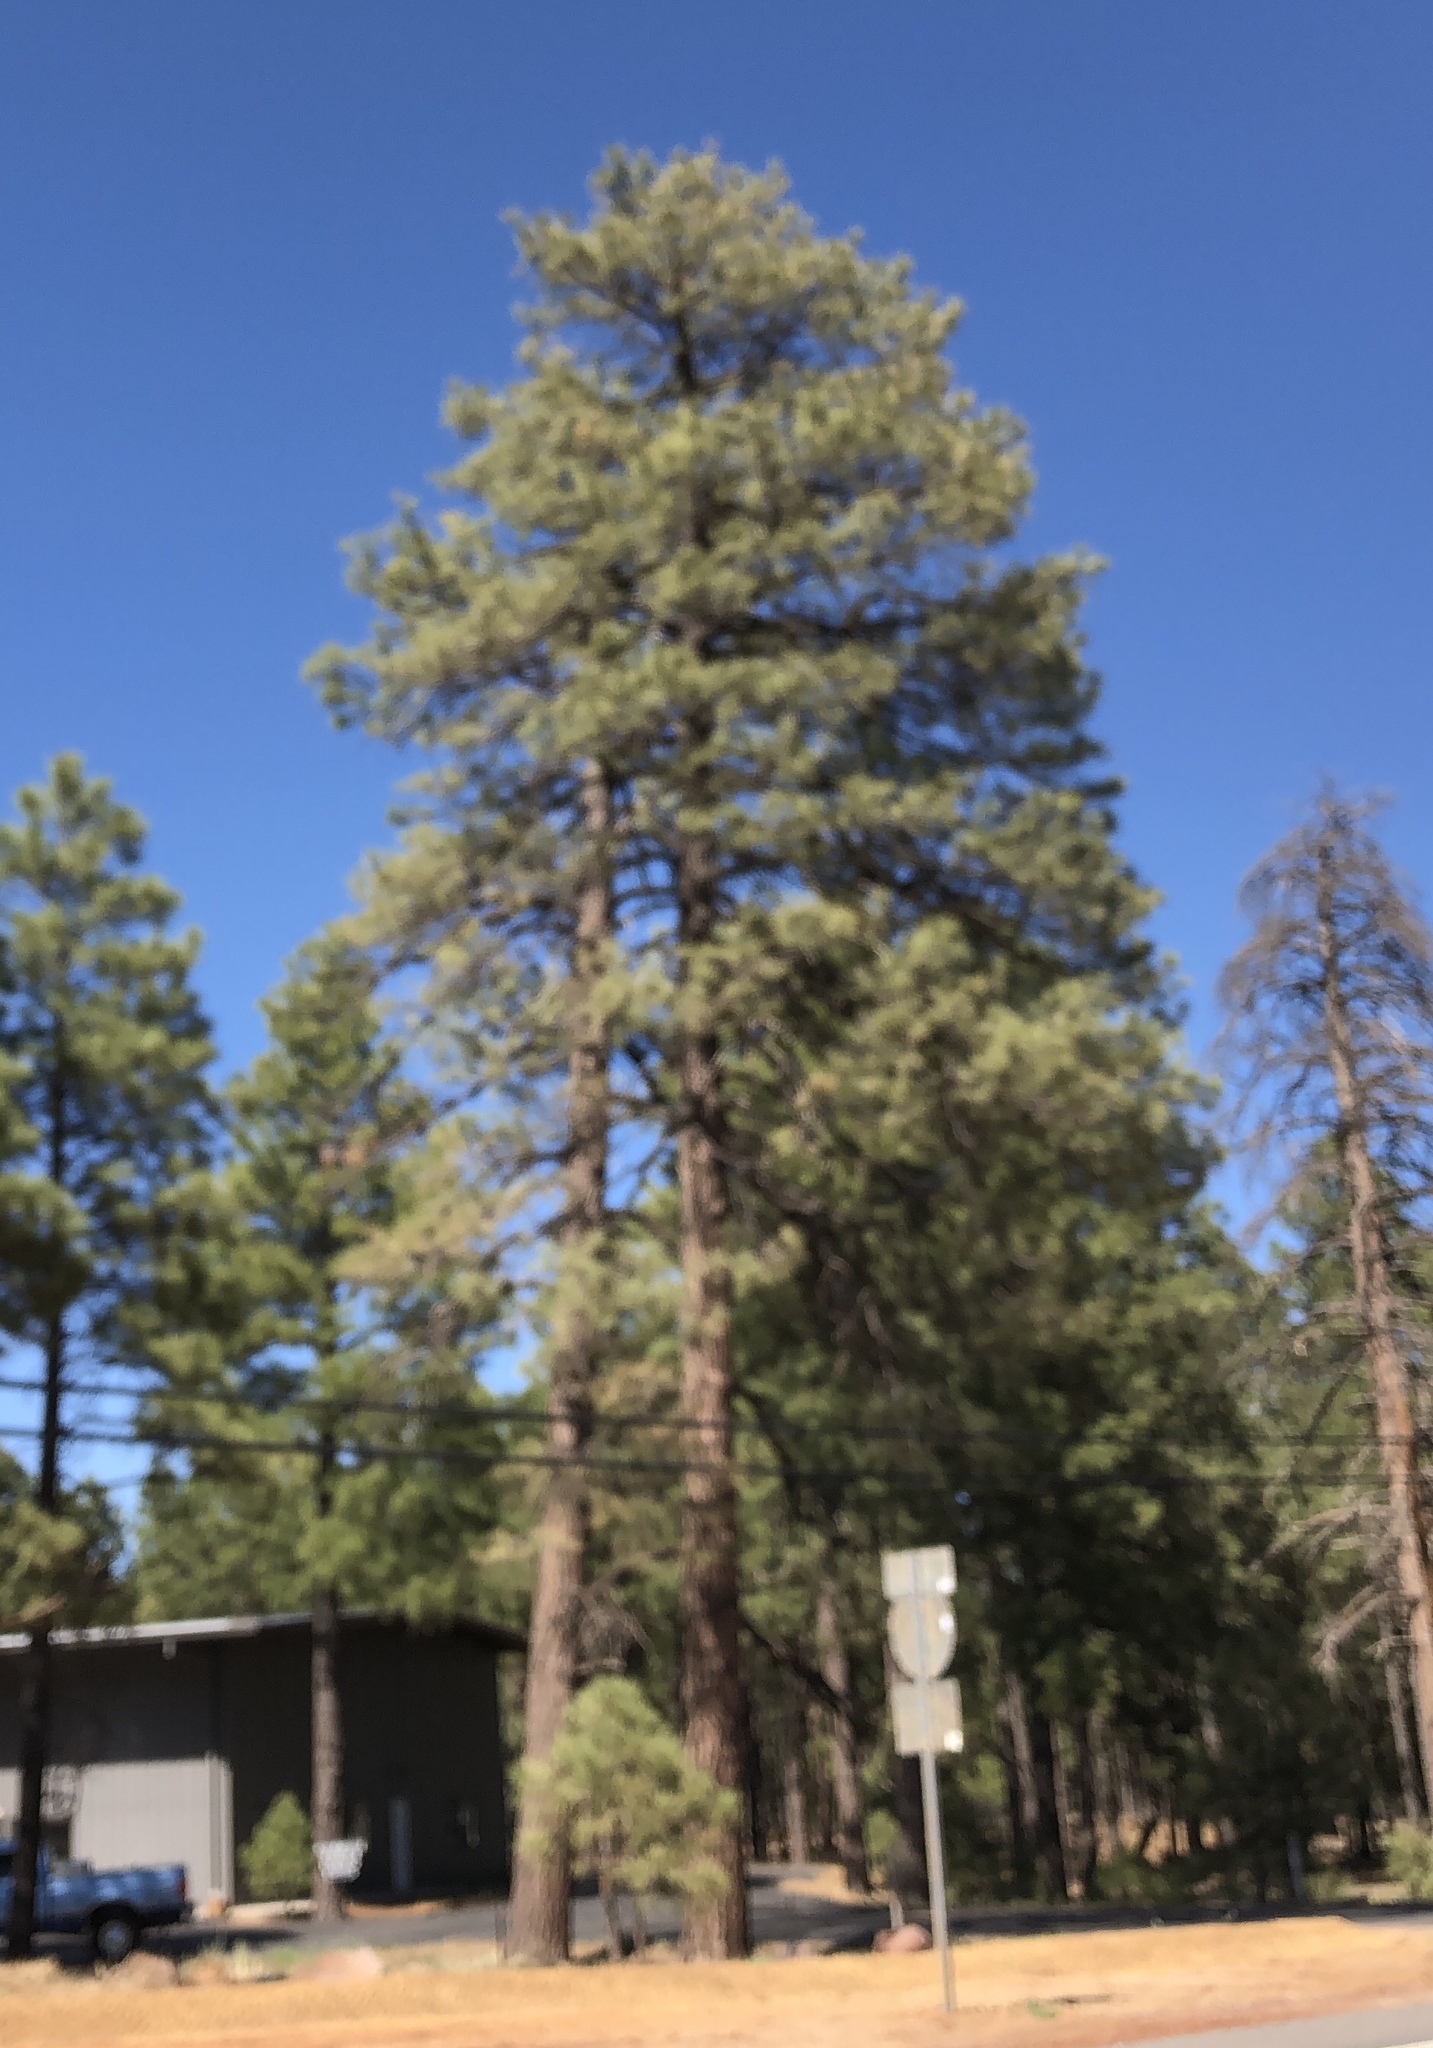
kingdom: Plantae
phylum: Tracheophyta
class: Pinopsida
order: Pinales
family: Pinaceae
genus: Pinus
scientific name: Pinus ponderosa
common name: Western yellow-pine
